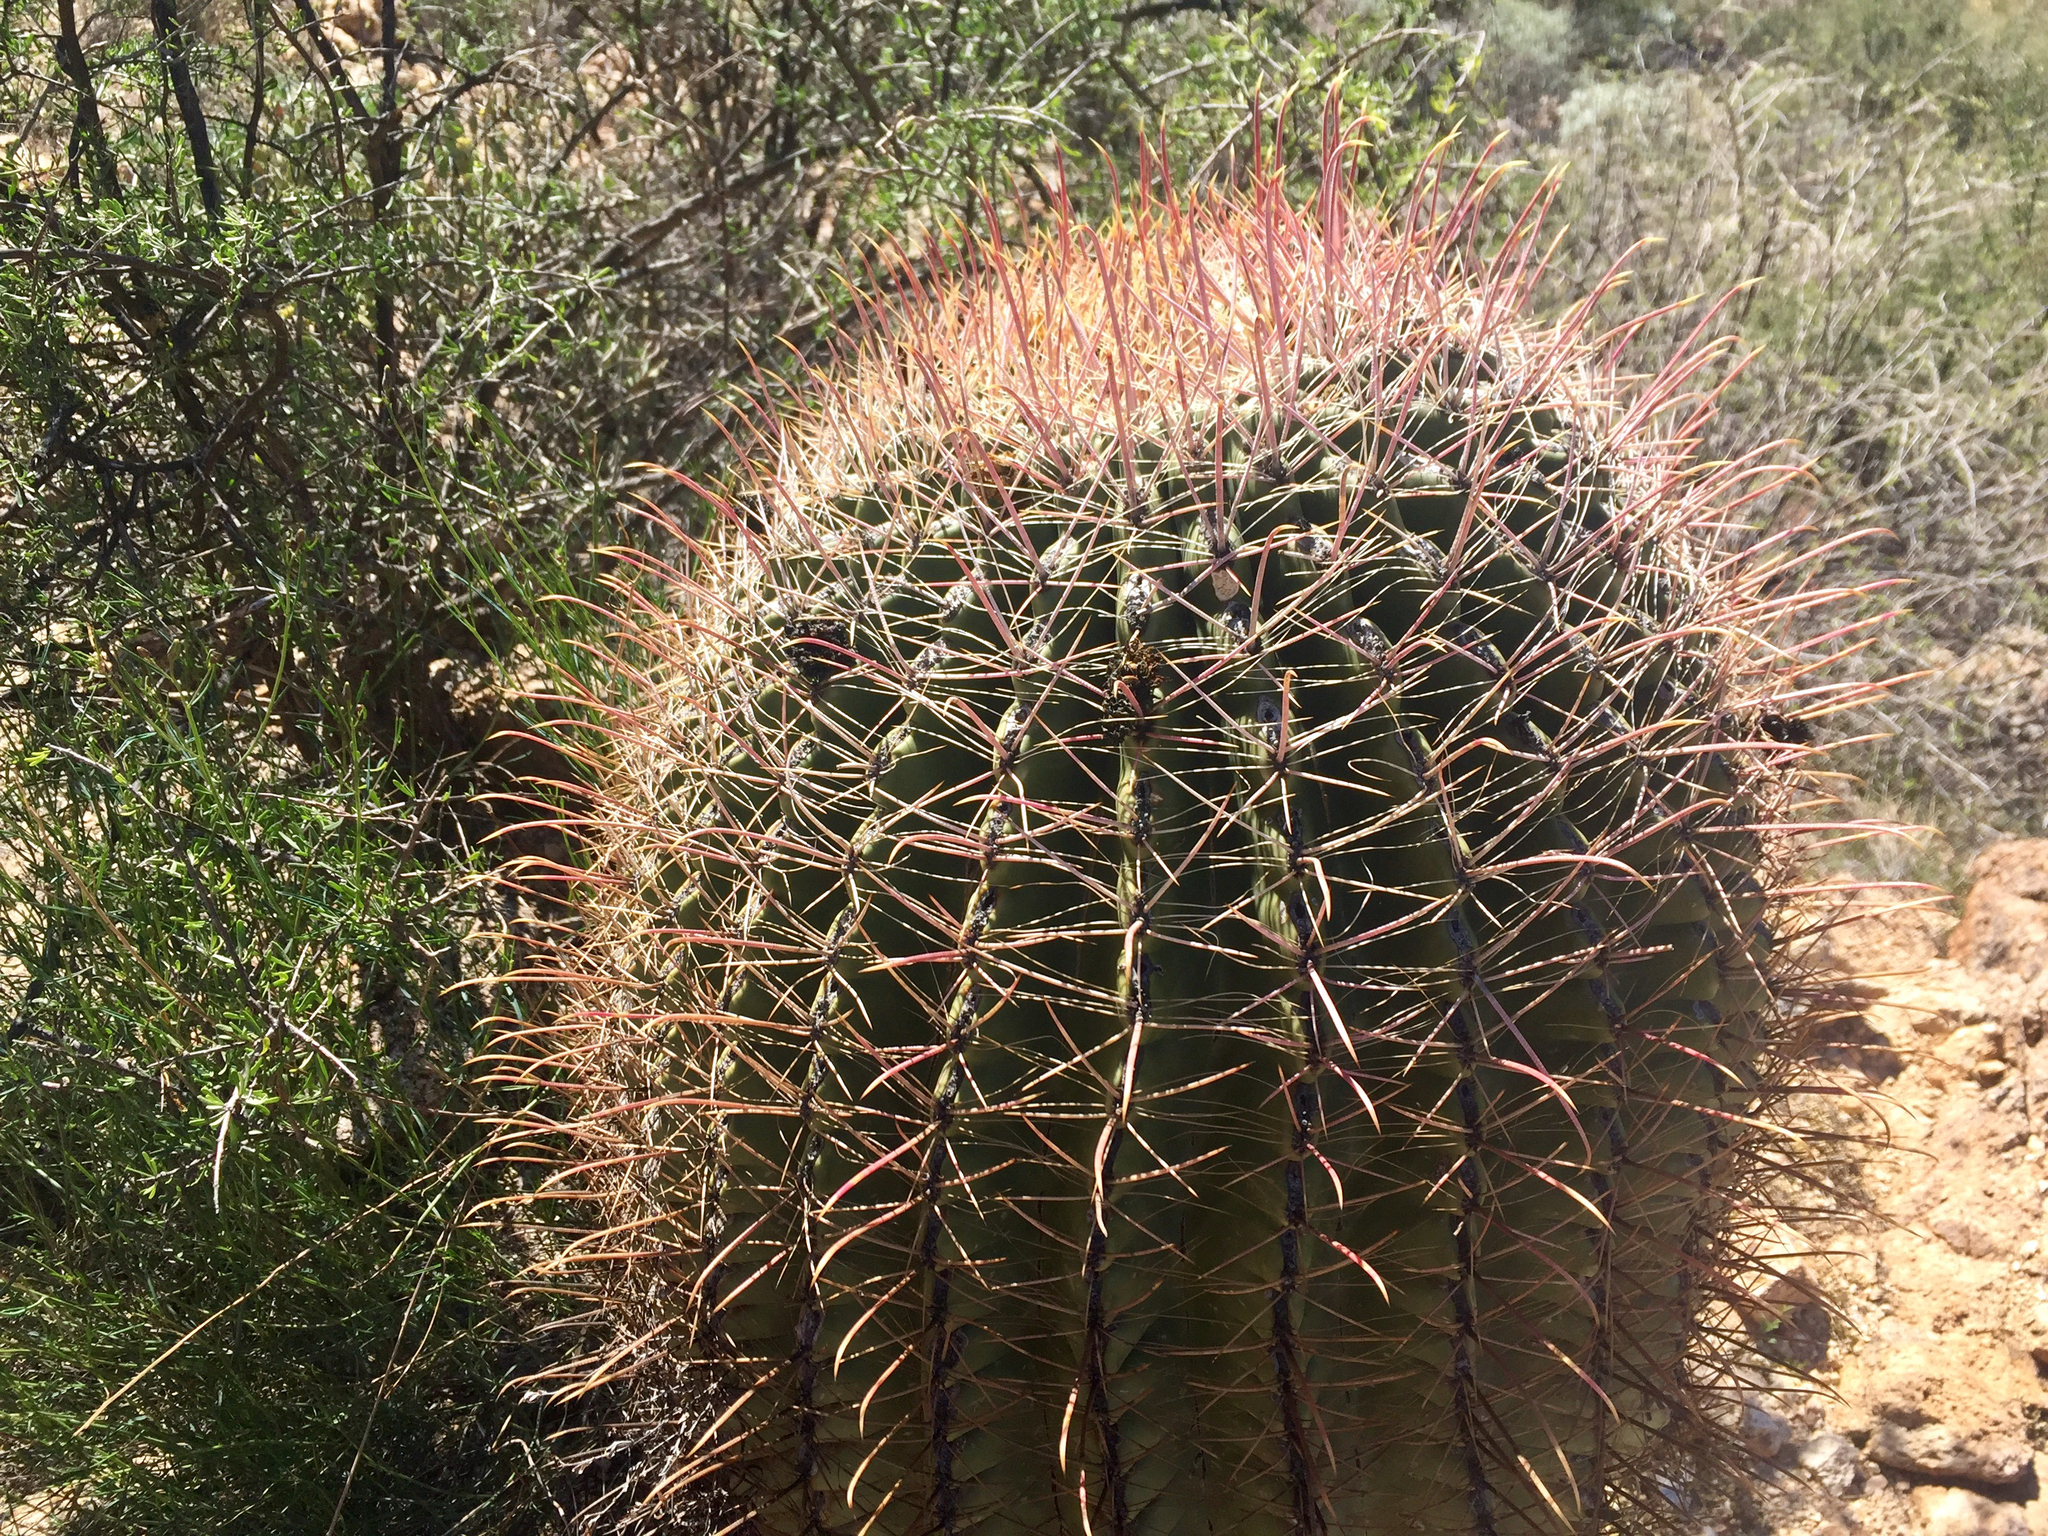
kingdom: Plantae
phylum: Tracheophyta
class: Magnoliopsida
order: Caryophyllales
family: Cactaceae
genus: Ferocactus
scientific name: Ferocactus wislizeni
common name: Candy barrel cactus
